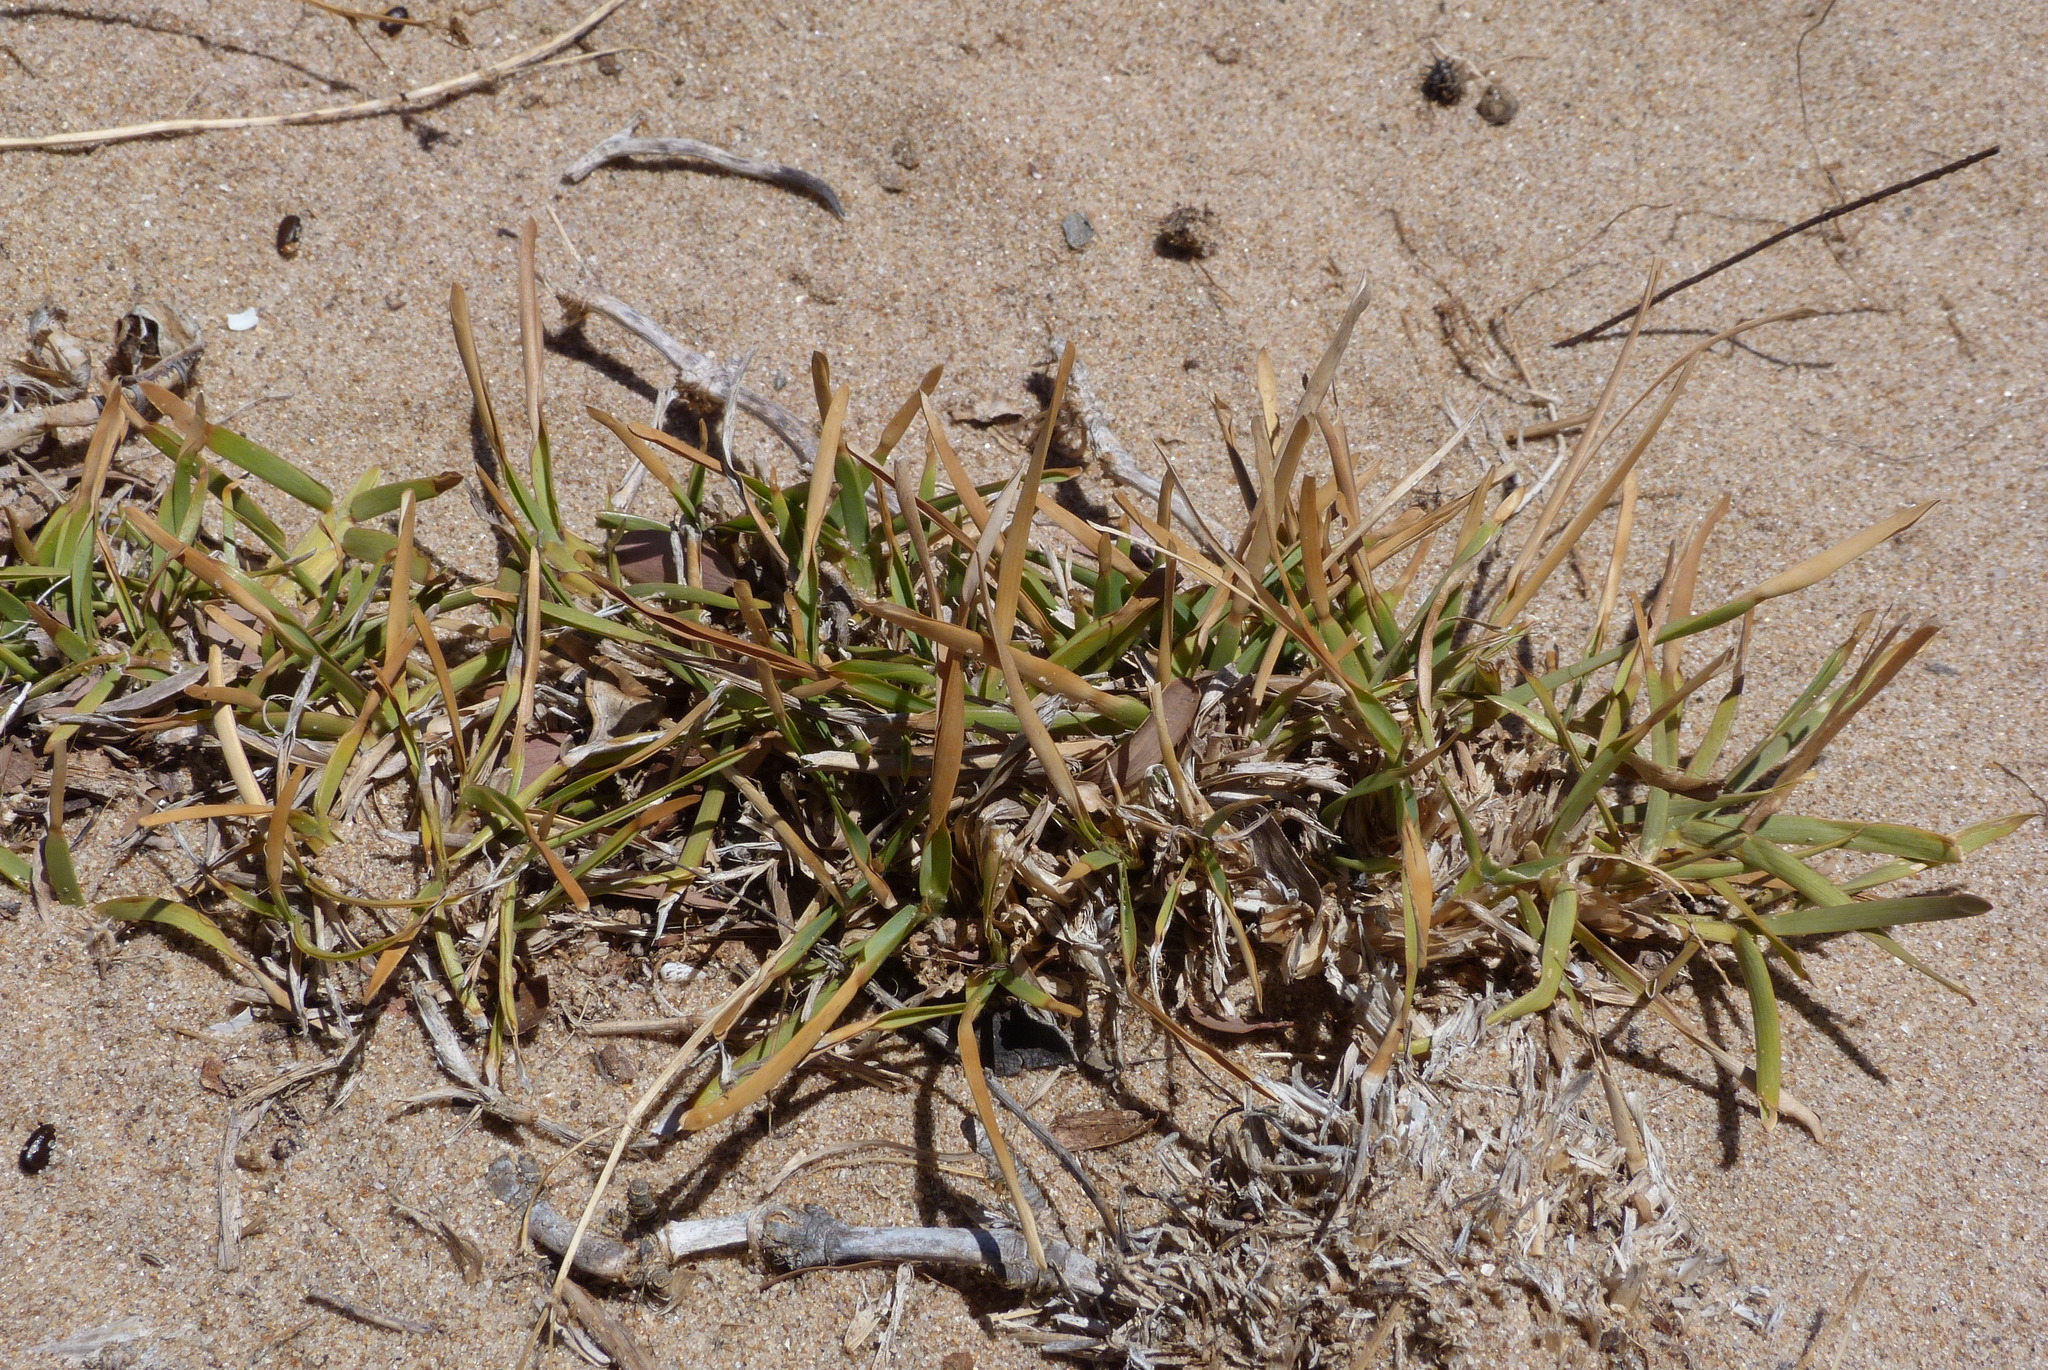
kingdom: Plantae
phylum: Tracheophyta
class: Liliopsida
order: Poales
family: Poaceae
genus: Stenotaphrum
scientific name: Stenotaphrum secundatum
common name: St. augustine grass
